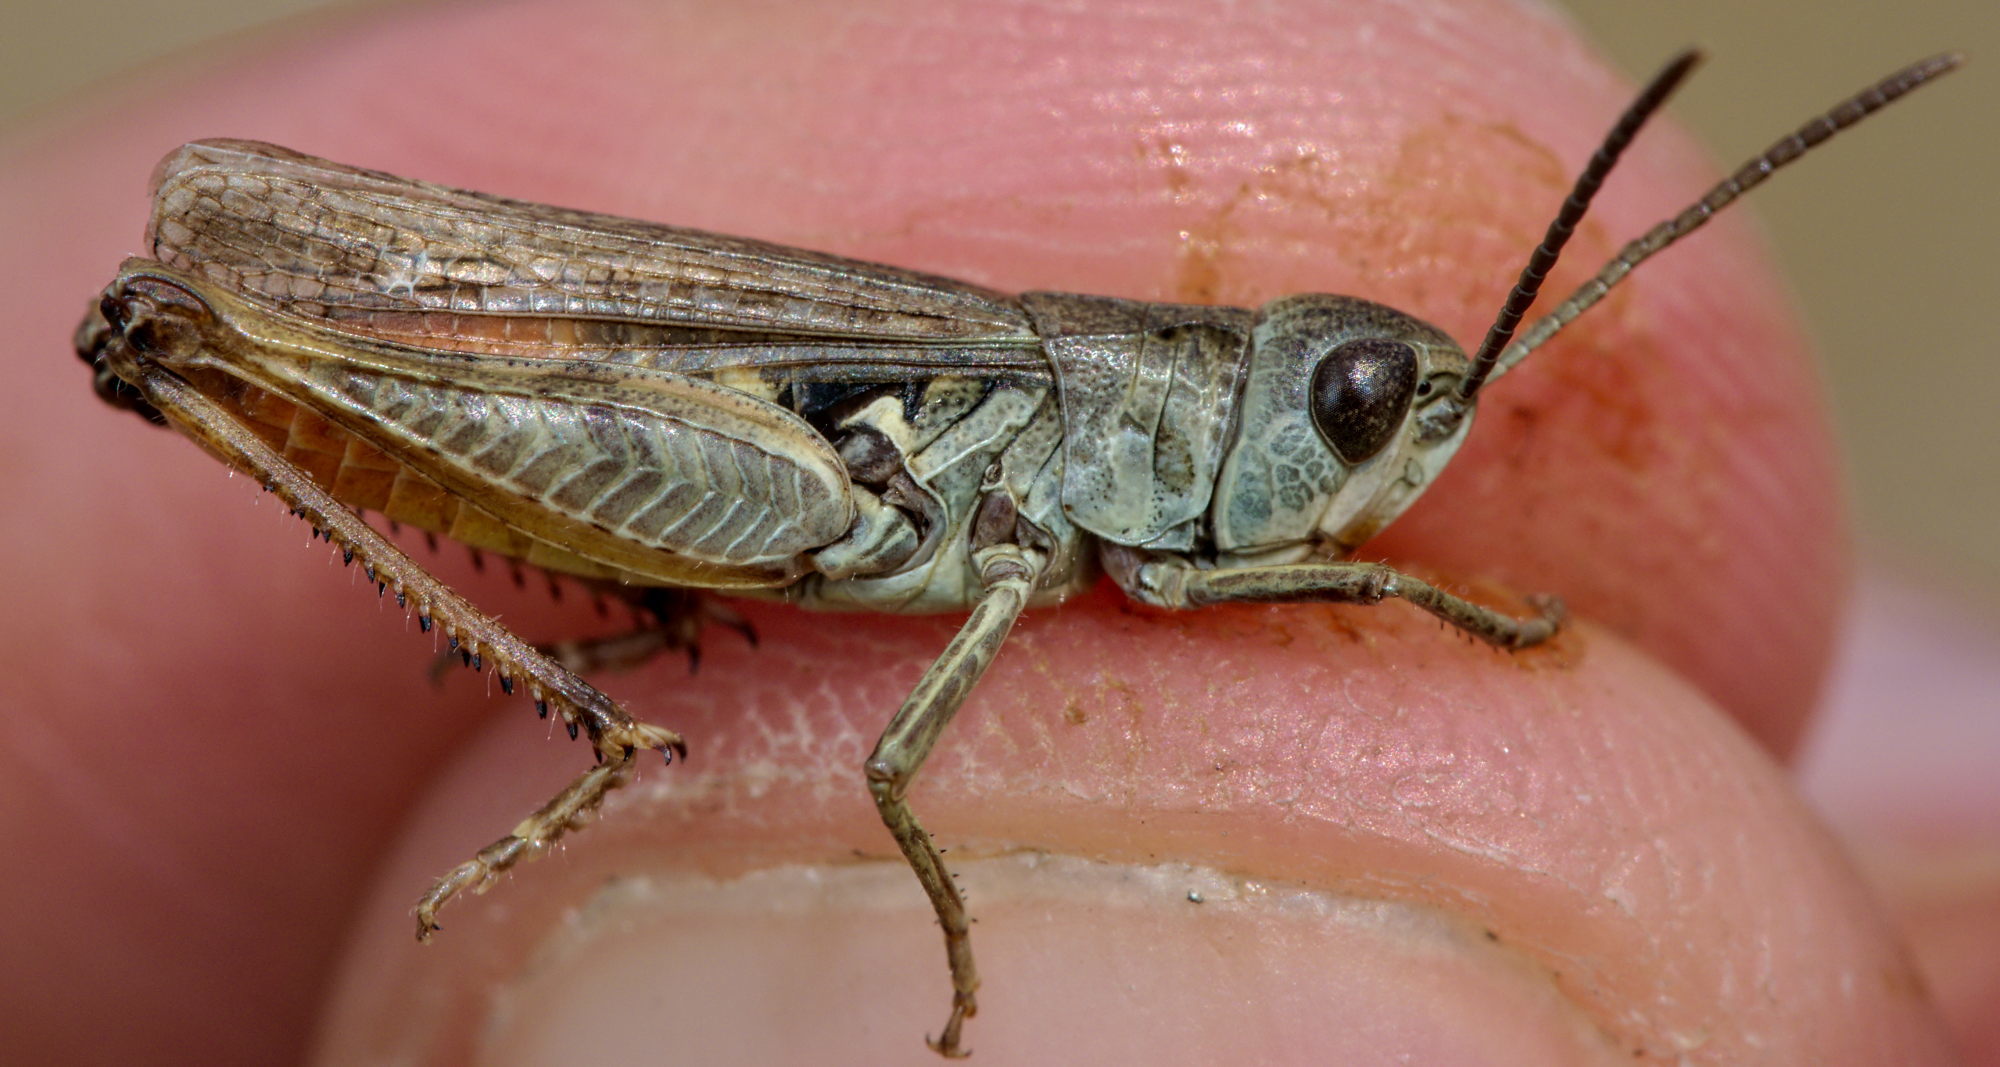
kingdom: Animalia
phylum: Arthropoda
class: Insecta
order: Orthoptera
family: Acrididae
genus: Omocestus
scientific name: Omocestus haemorrhoidalis
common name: Orange-tipped grasshopper
